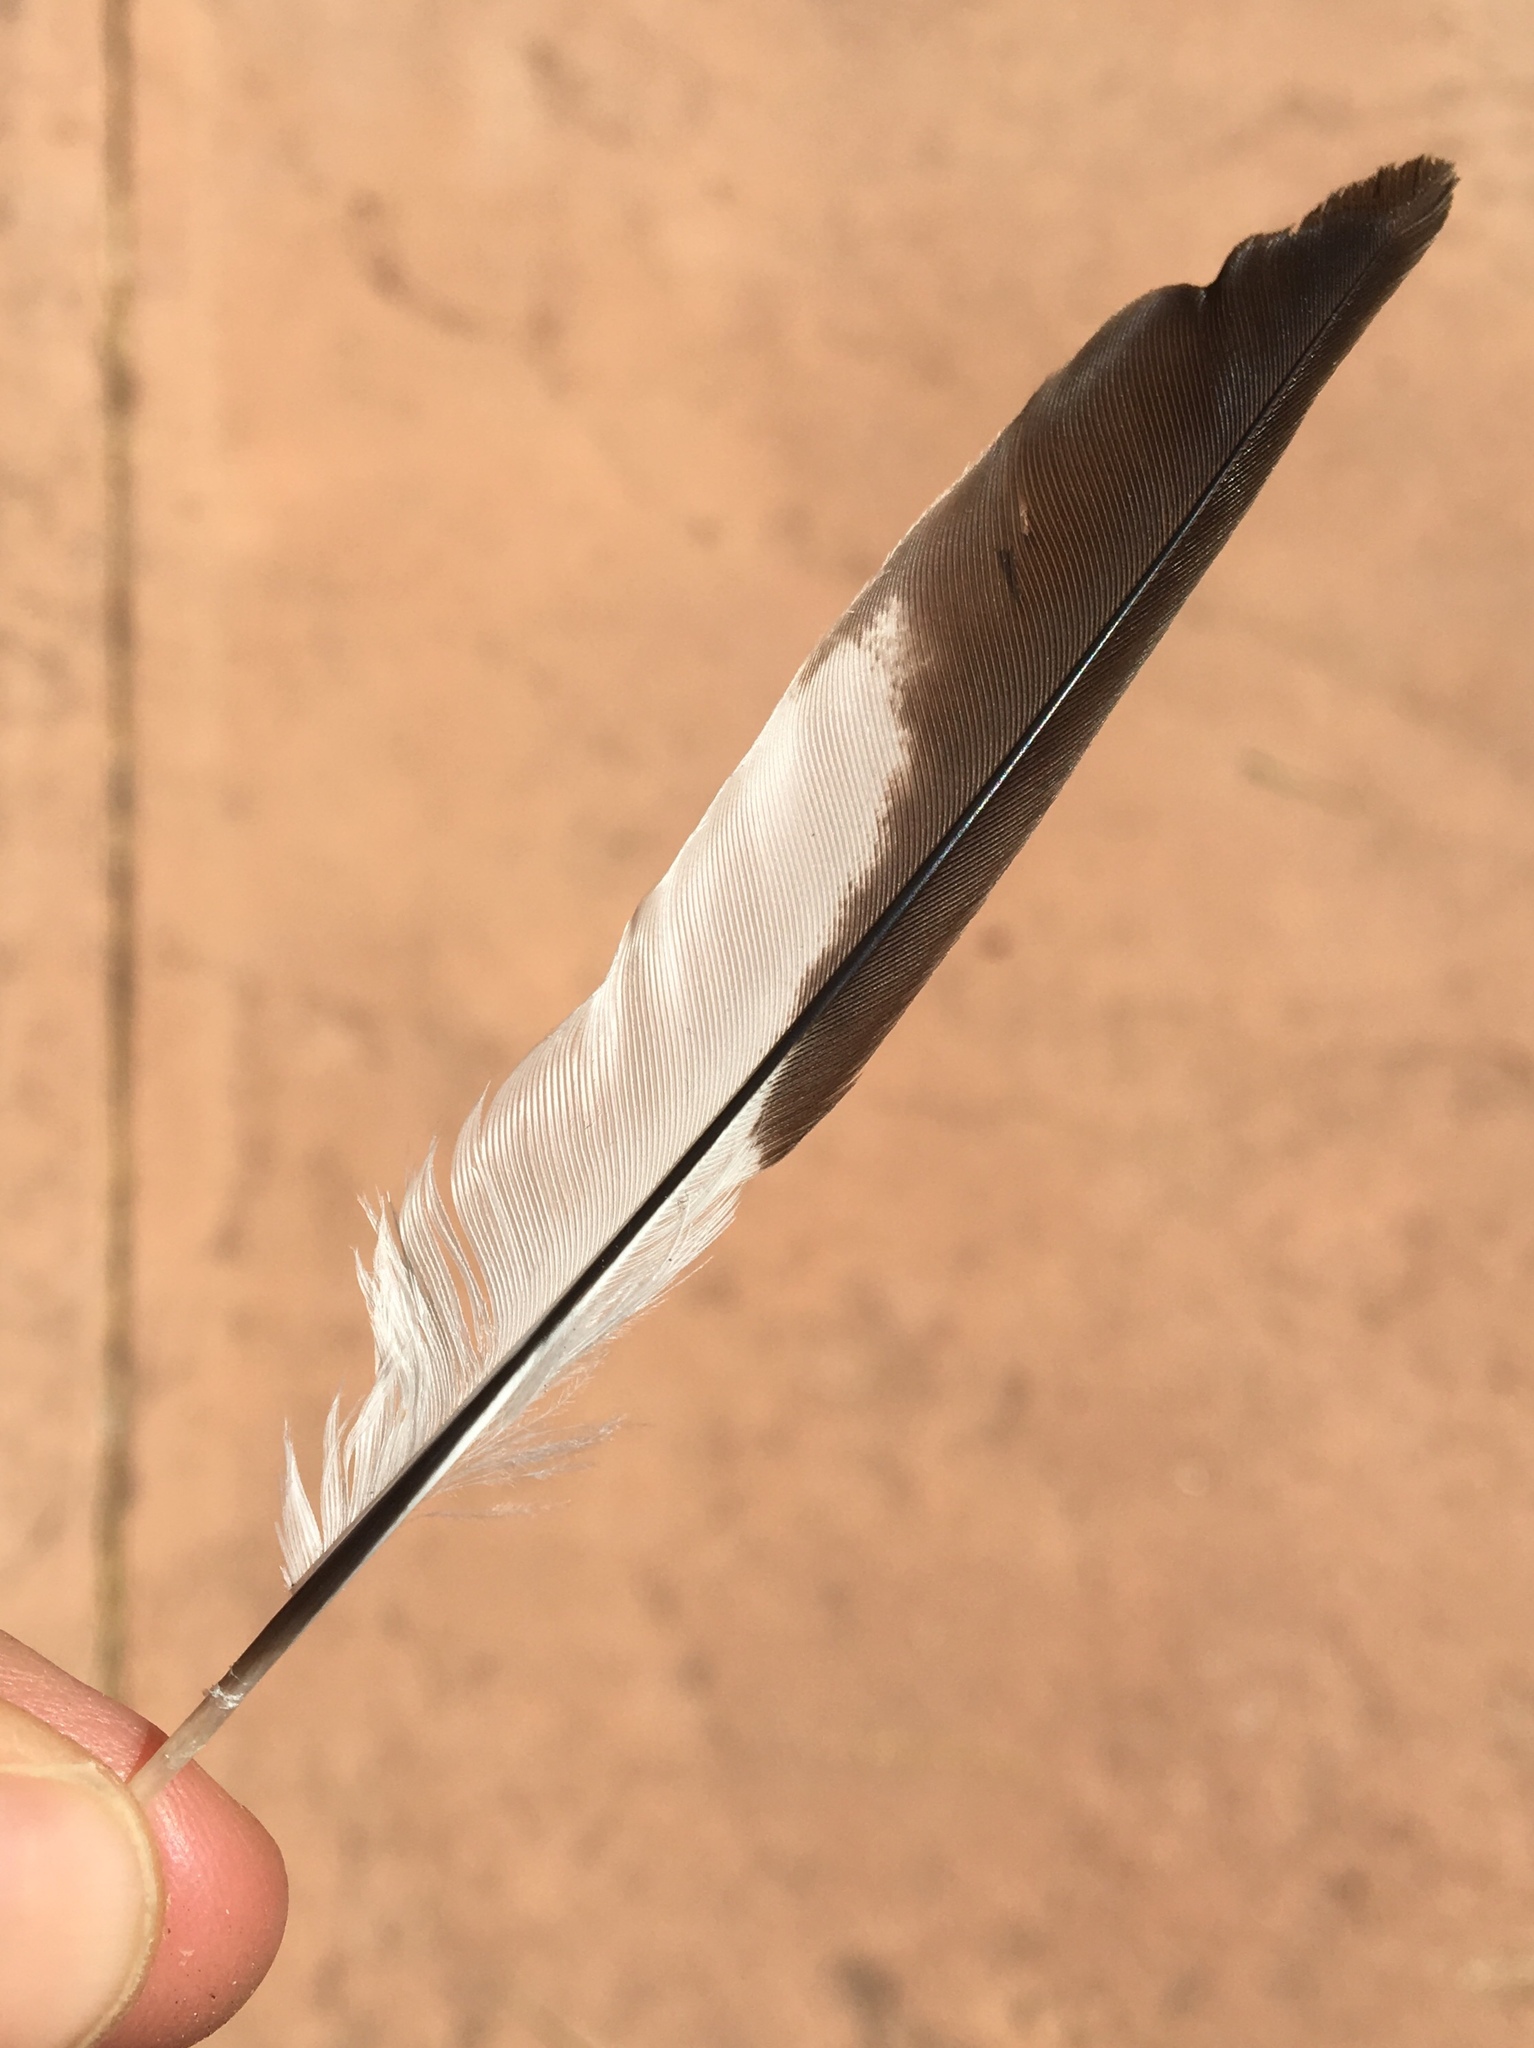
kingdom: Animalia
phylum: Chordata
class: Aves
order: Passeriformes
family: Mimidae
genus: Mimus
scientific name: Mimus polyglottos
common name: Northern mockingbird
